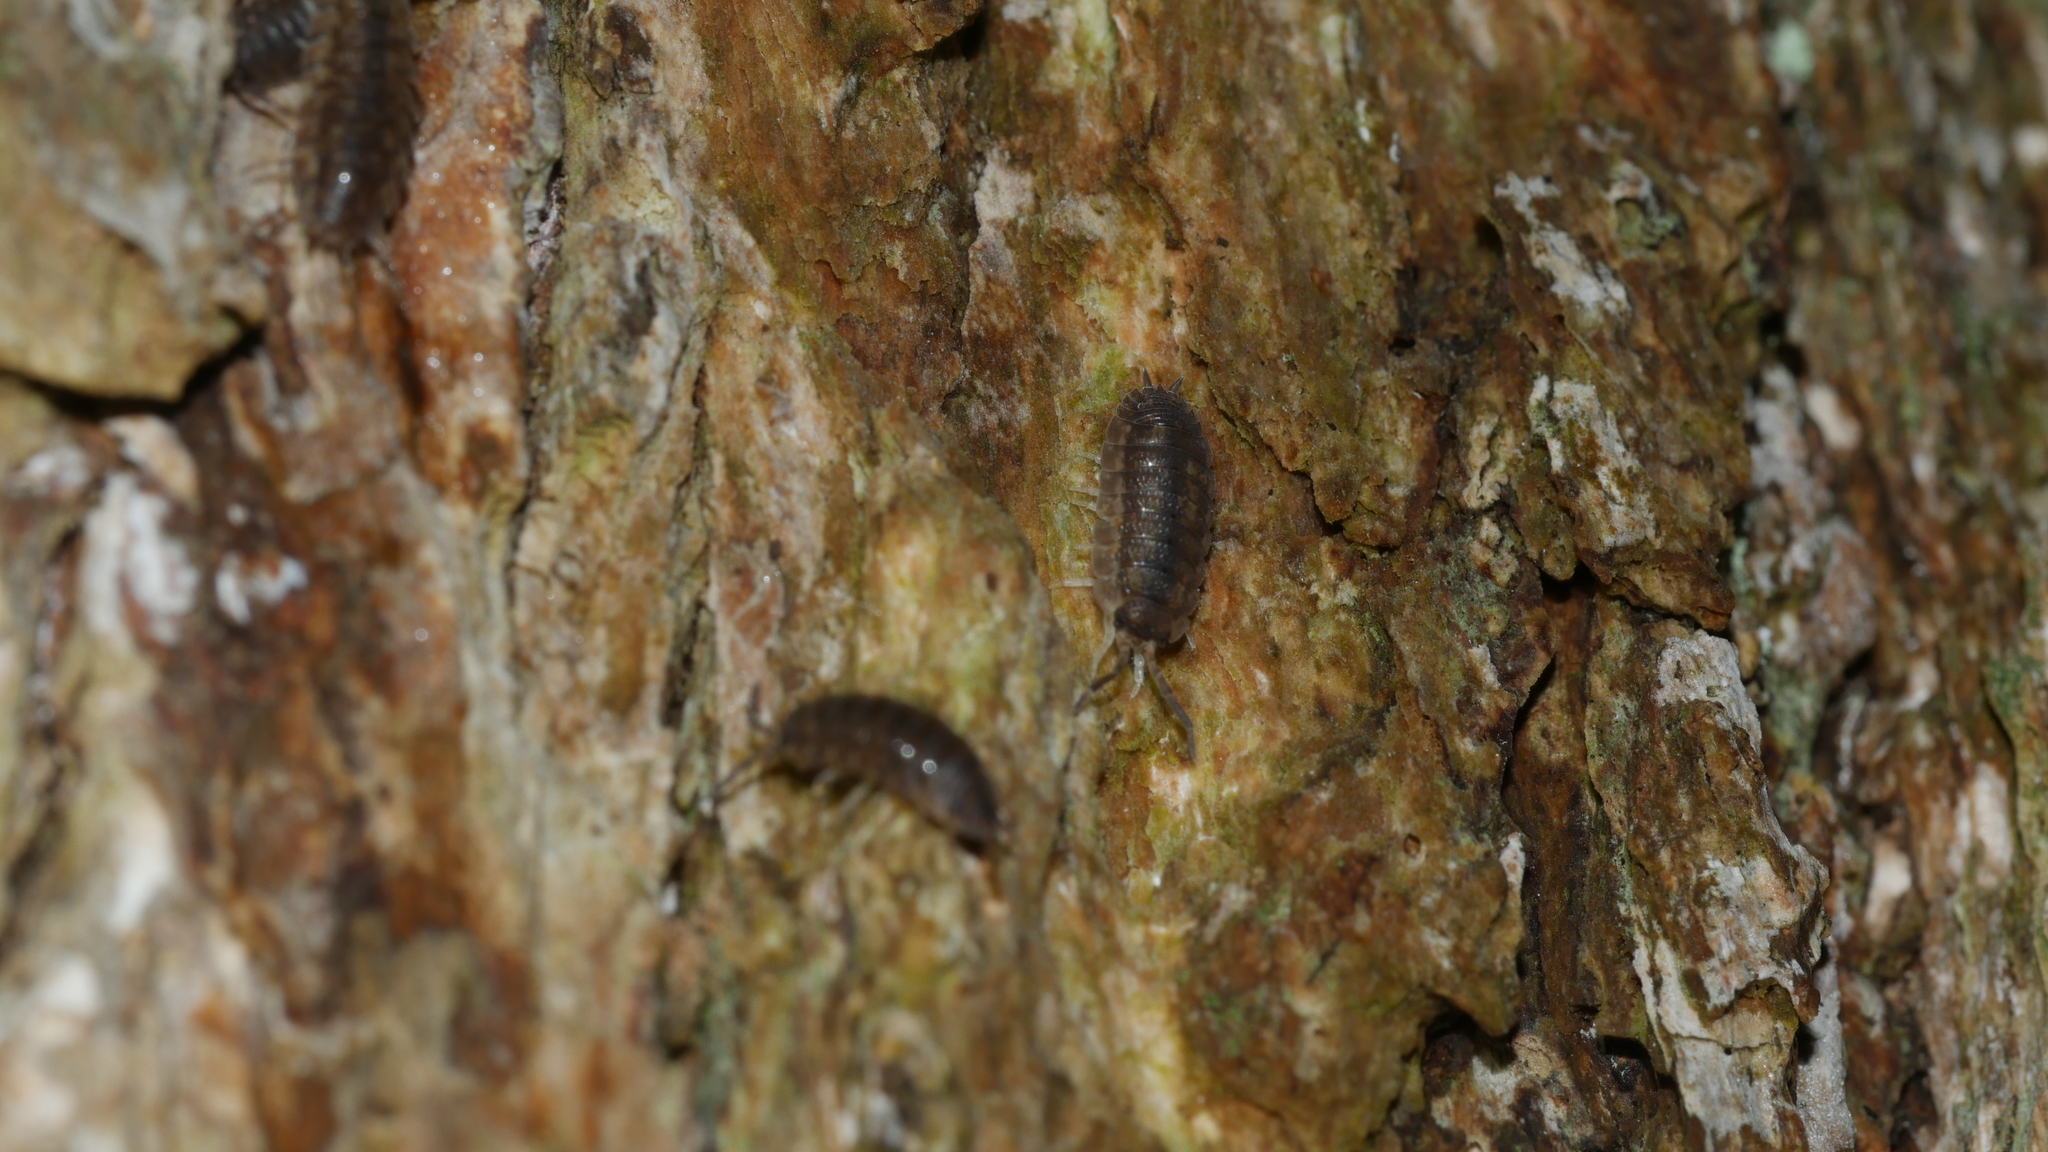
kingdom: Animalia
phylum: Arthropoda
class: Malacostraca
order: Isopoda
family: Porcellionidae
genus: Porcellio
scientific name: Porcellio scaber
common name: Common rough woodlouse
